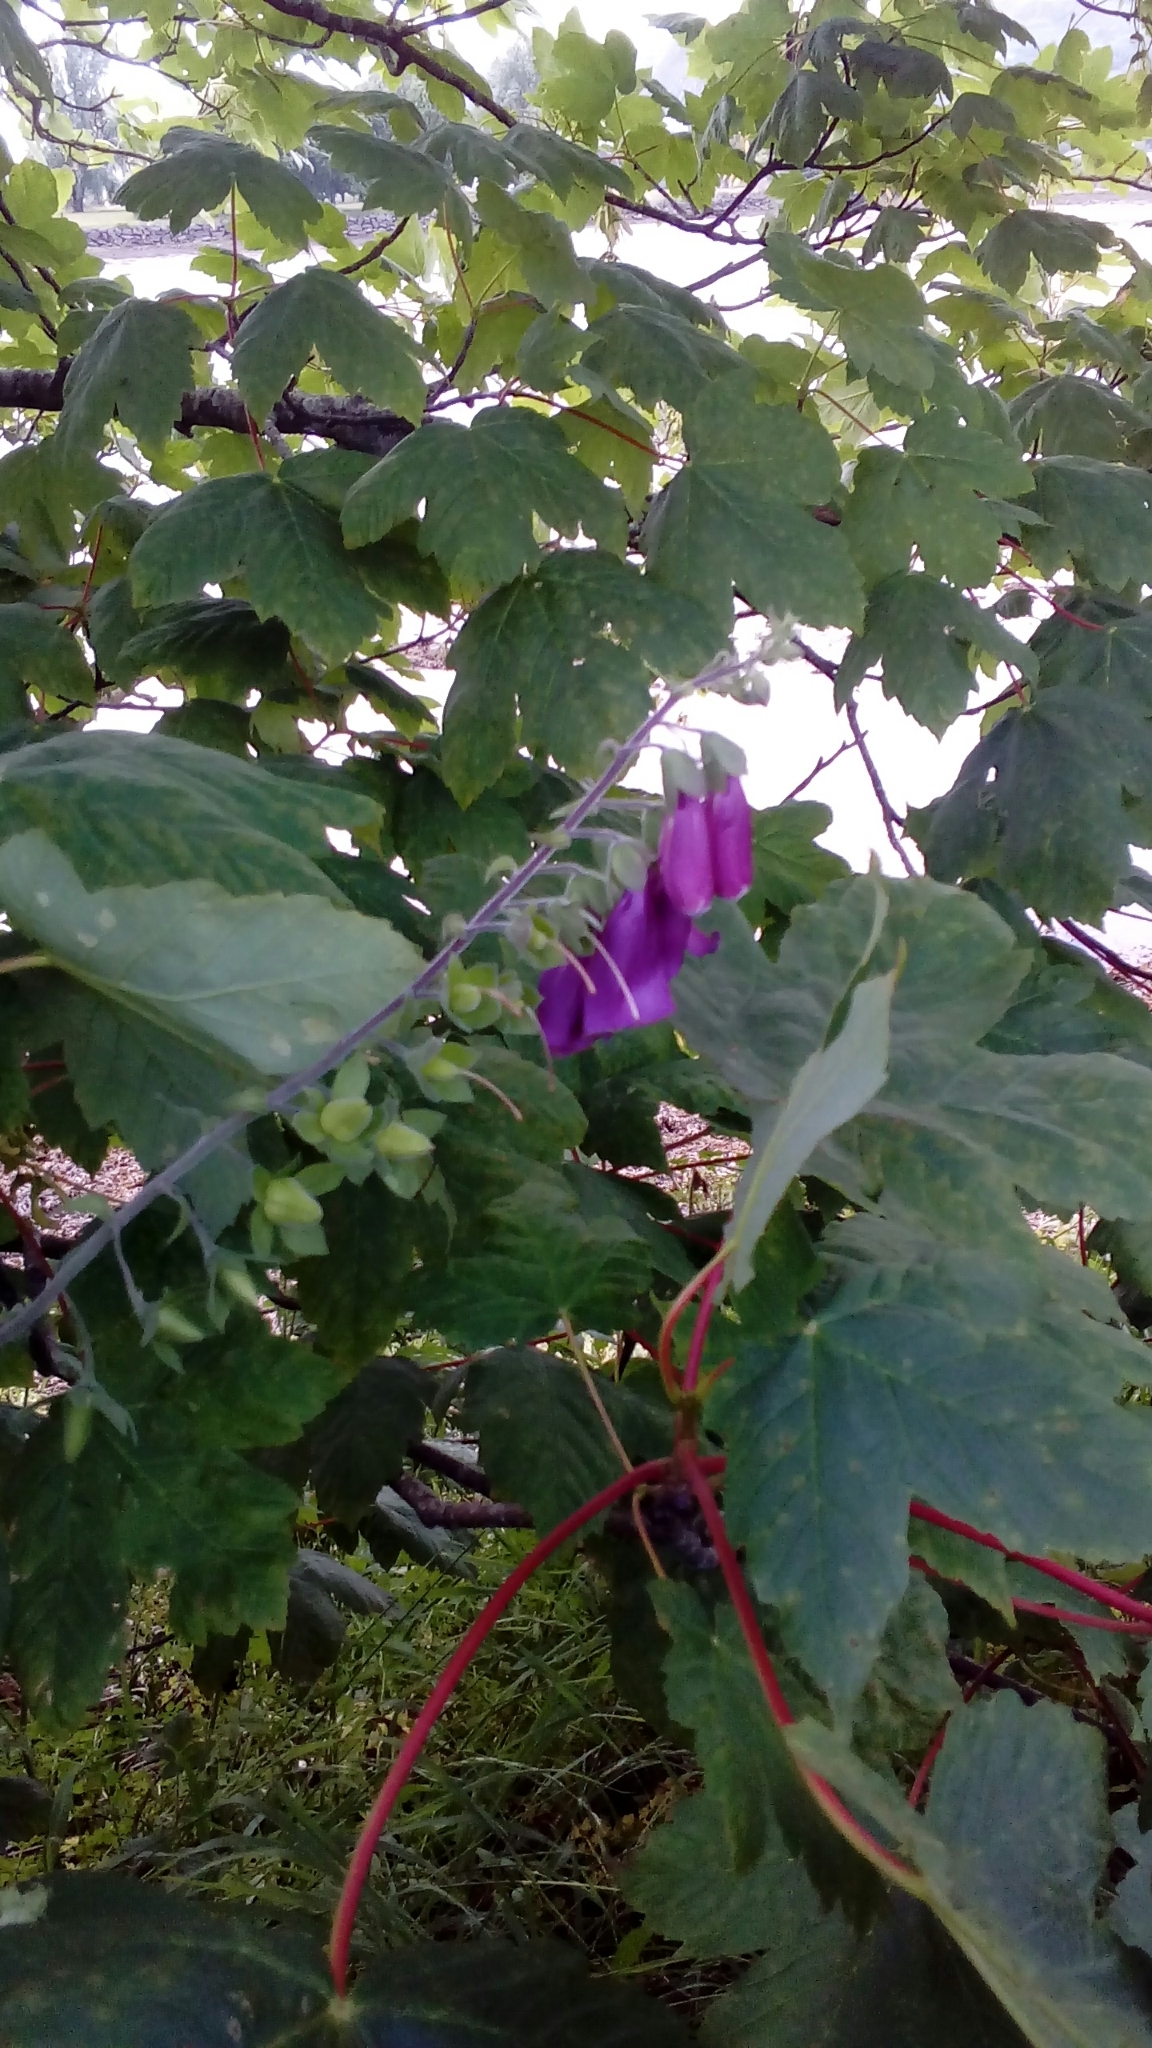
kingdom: Plantae
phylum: Tracheophyta
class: Magnoliopsida
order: Lamiales
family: Plantaginaceae
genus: Digitalis
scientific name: Digitalis purpurea
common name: Foxglove
